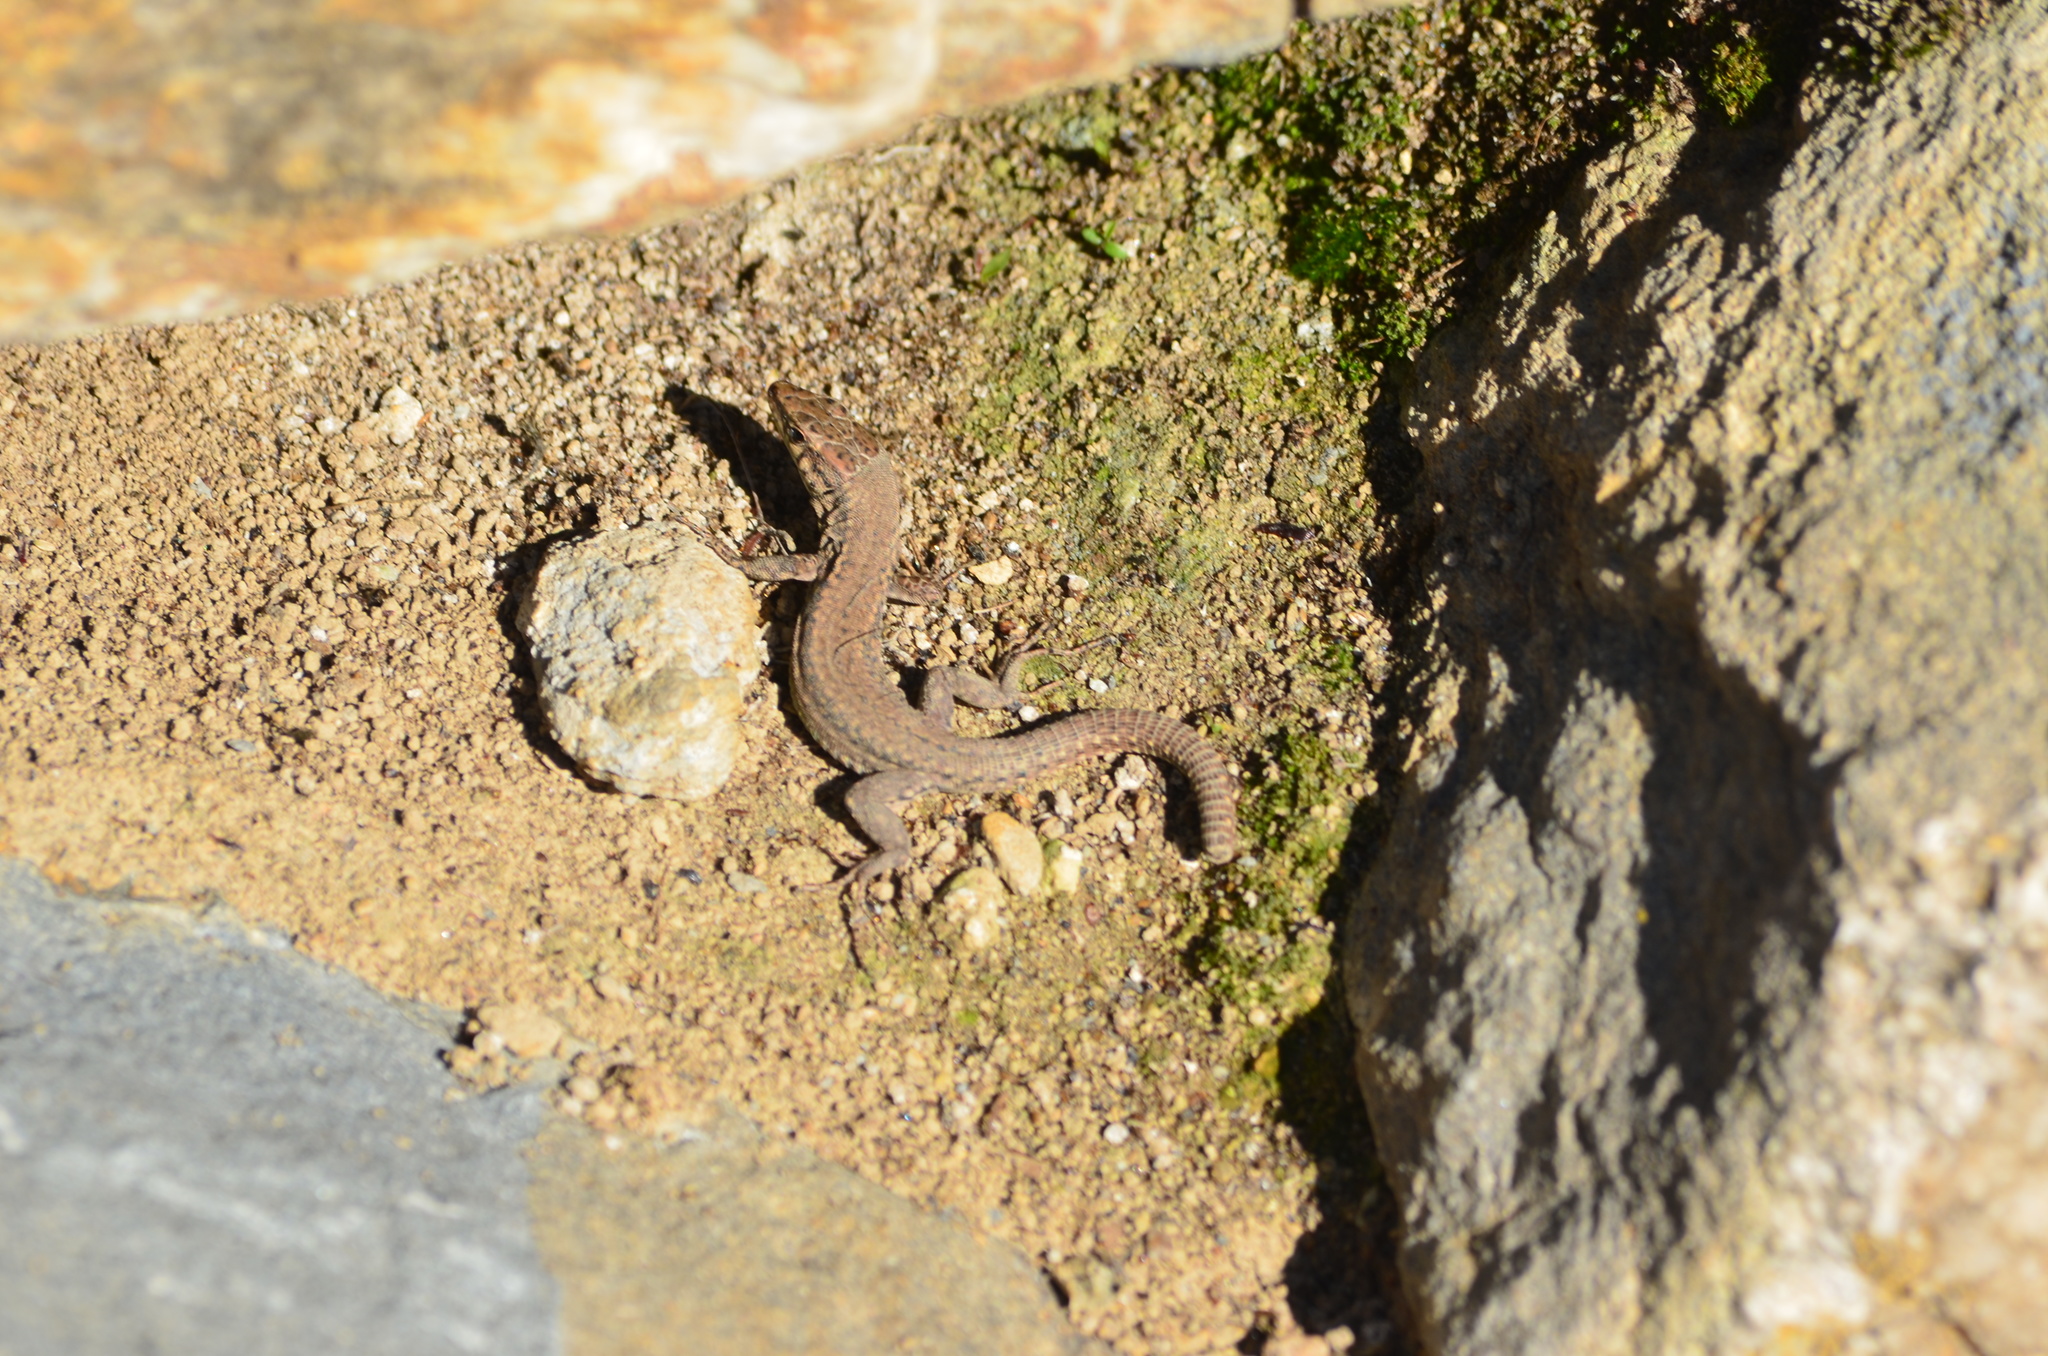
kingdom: Animalia
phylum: Chordata
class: Squamata
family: Lacertidae
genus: Podarcis
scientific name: Podarcis liolepis
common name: Catalonian wall lizard
